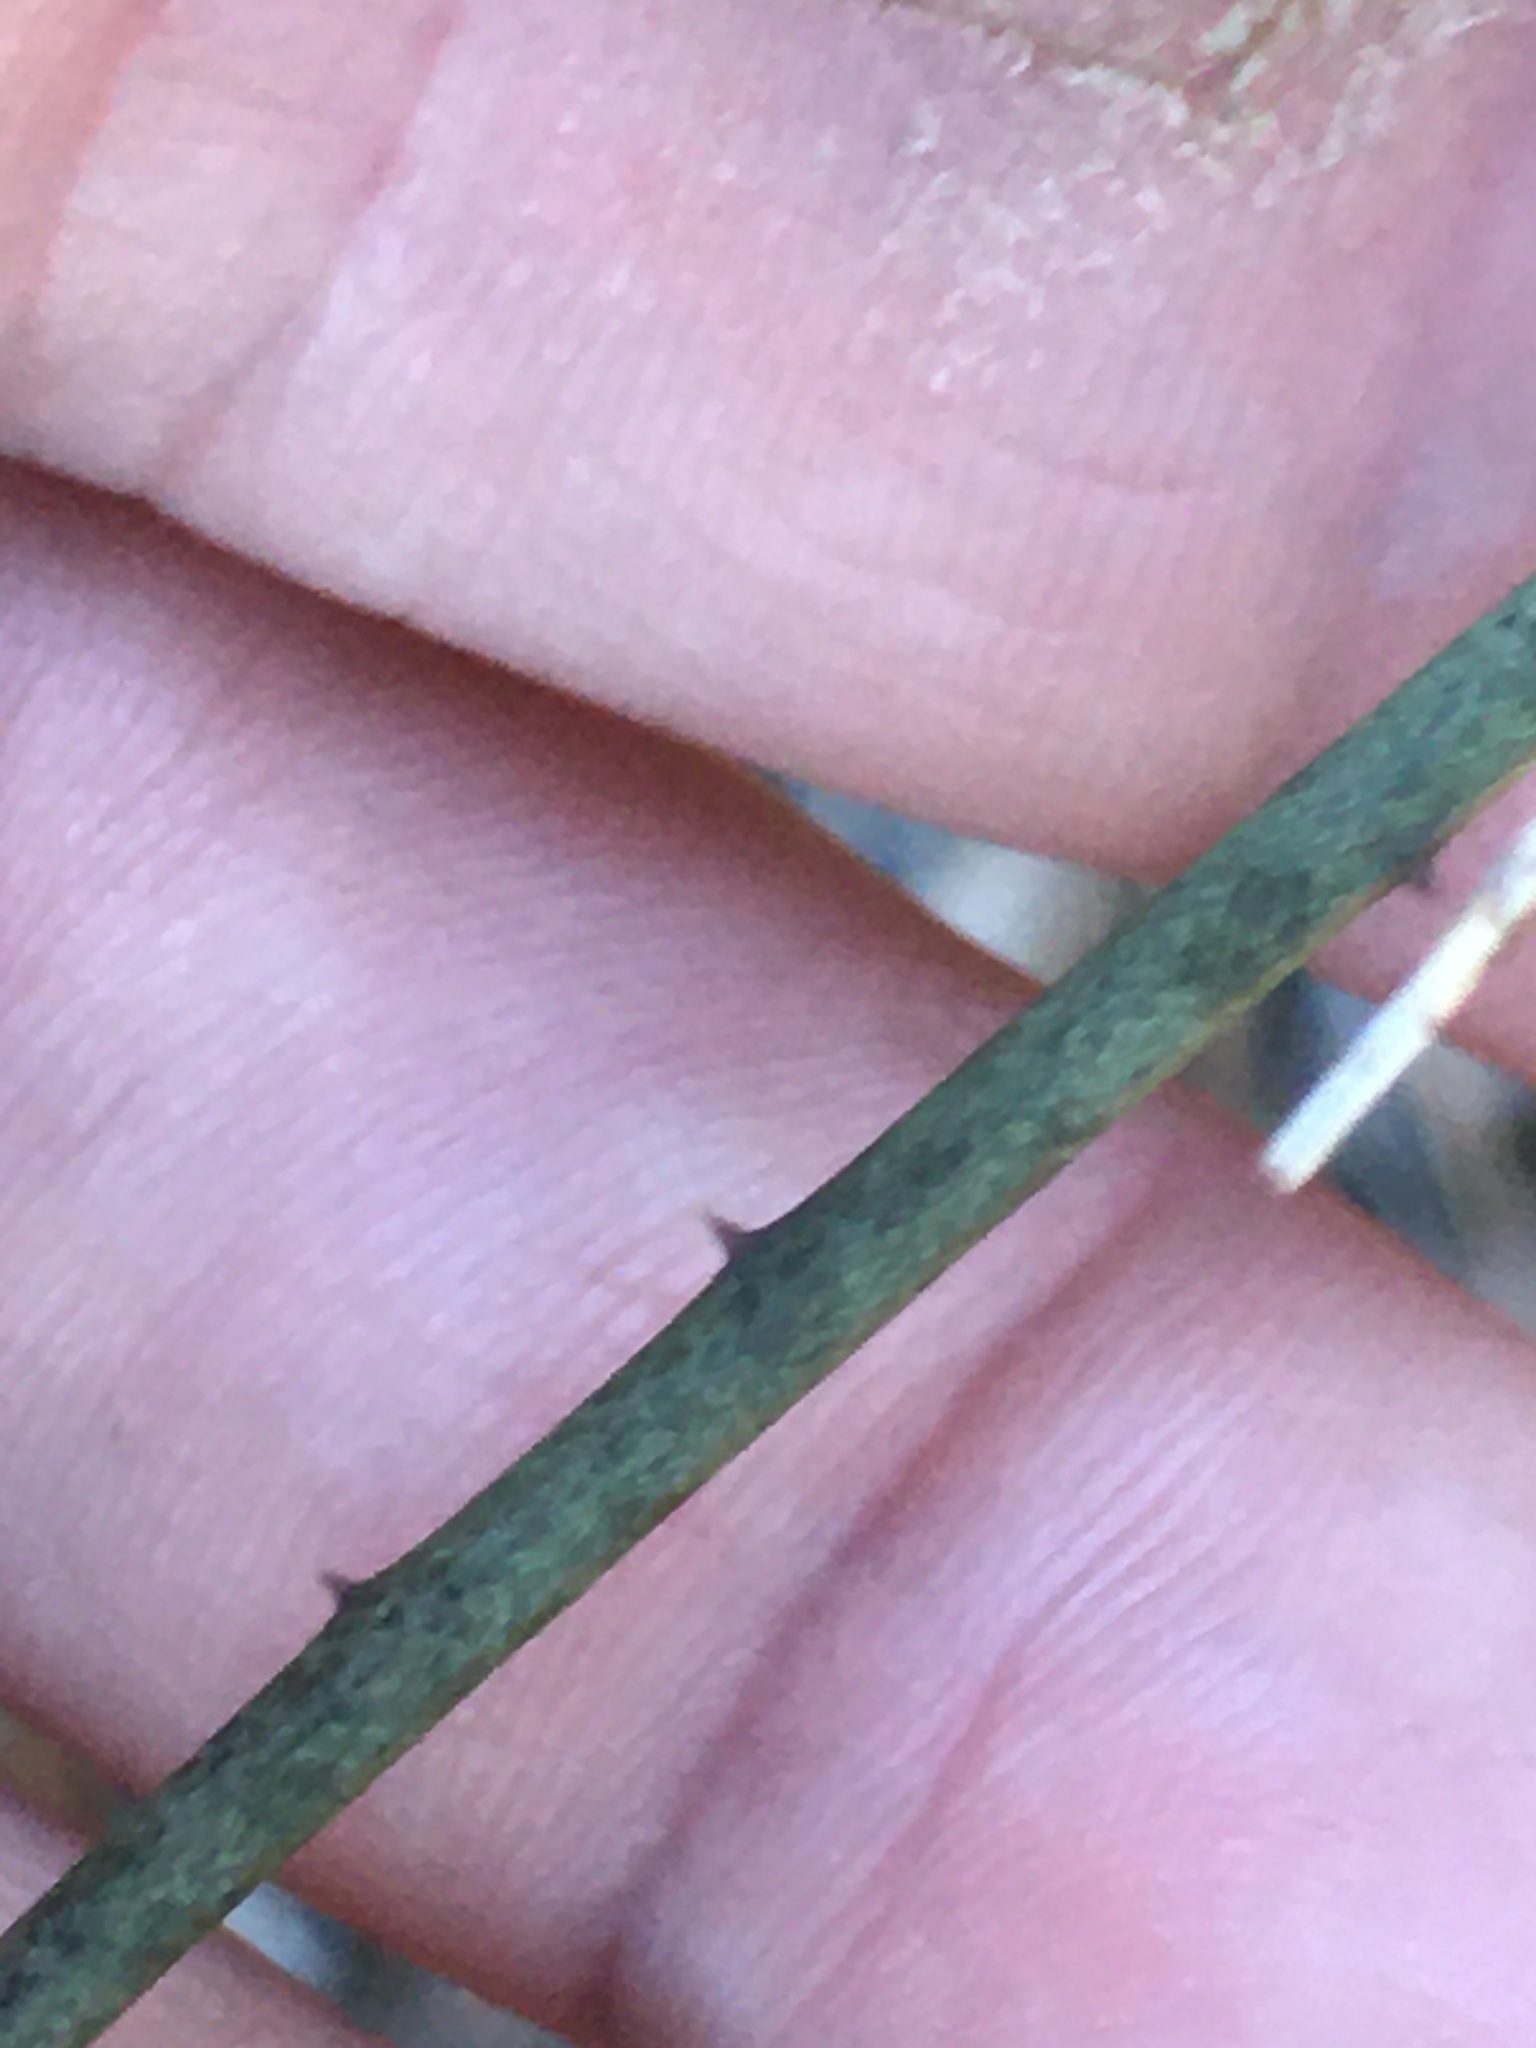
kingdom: Plantae
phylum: Tracheophyta
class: Liliopsida
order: Liliales
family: Smilacaceae
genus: Smilax
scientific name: Smilax maritima
